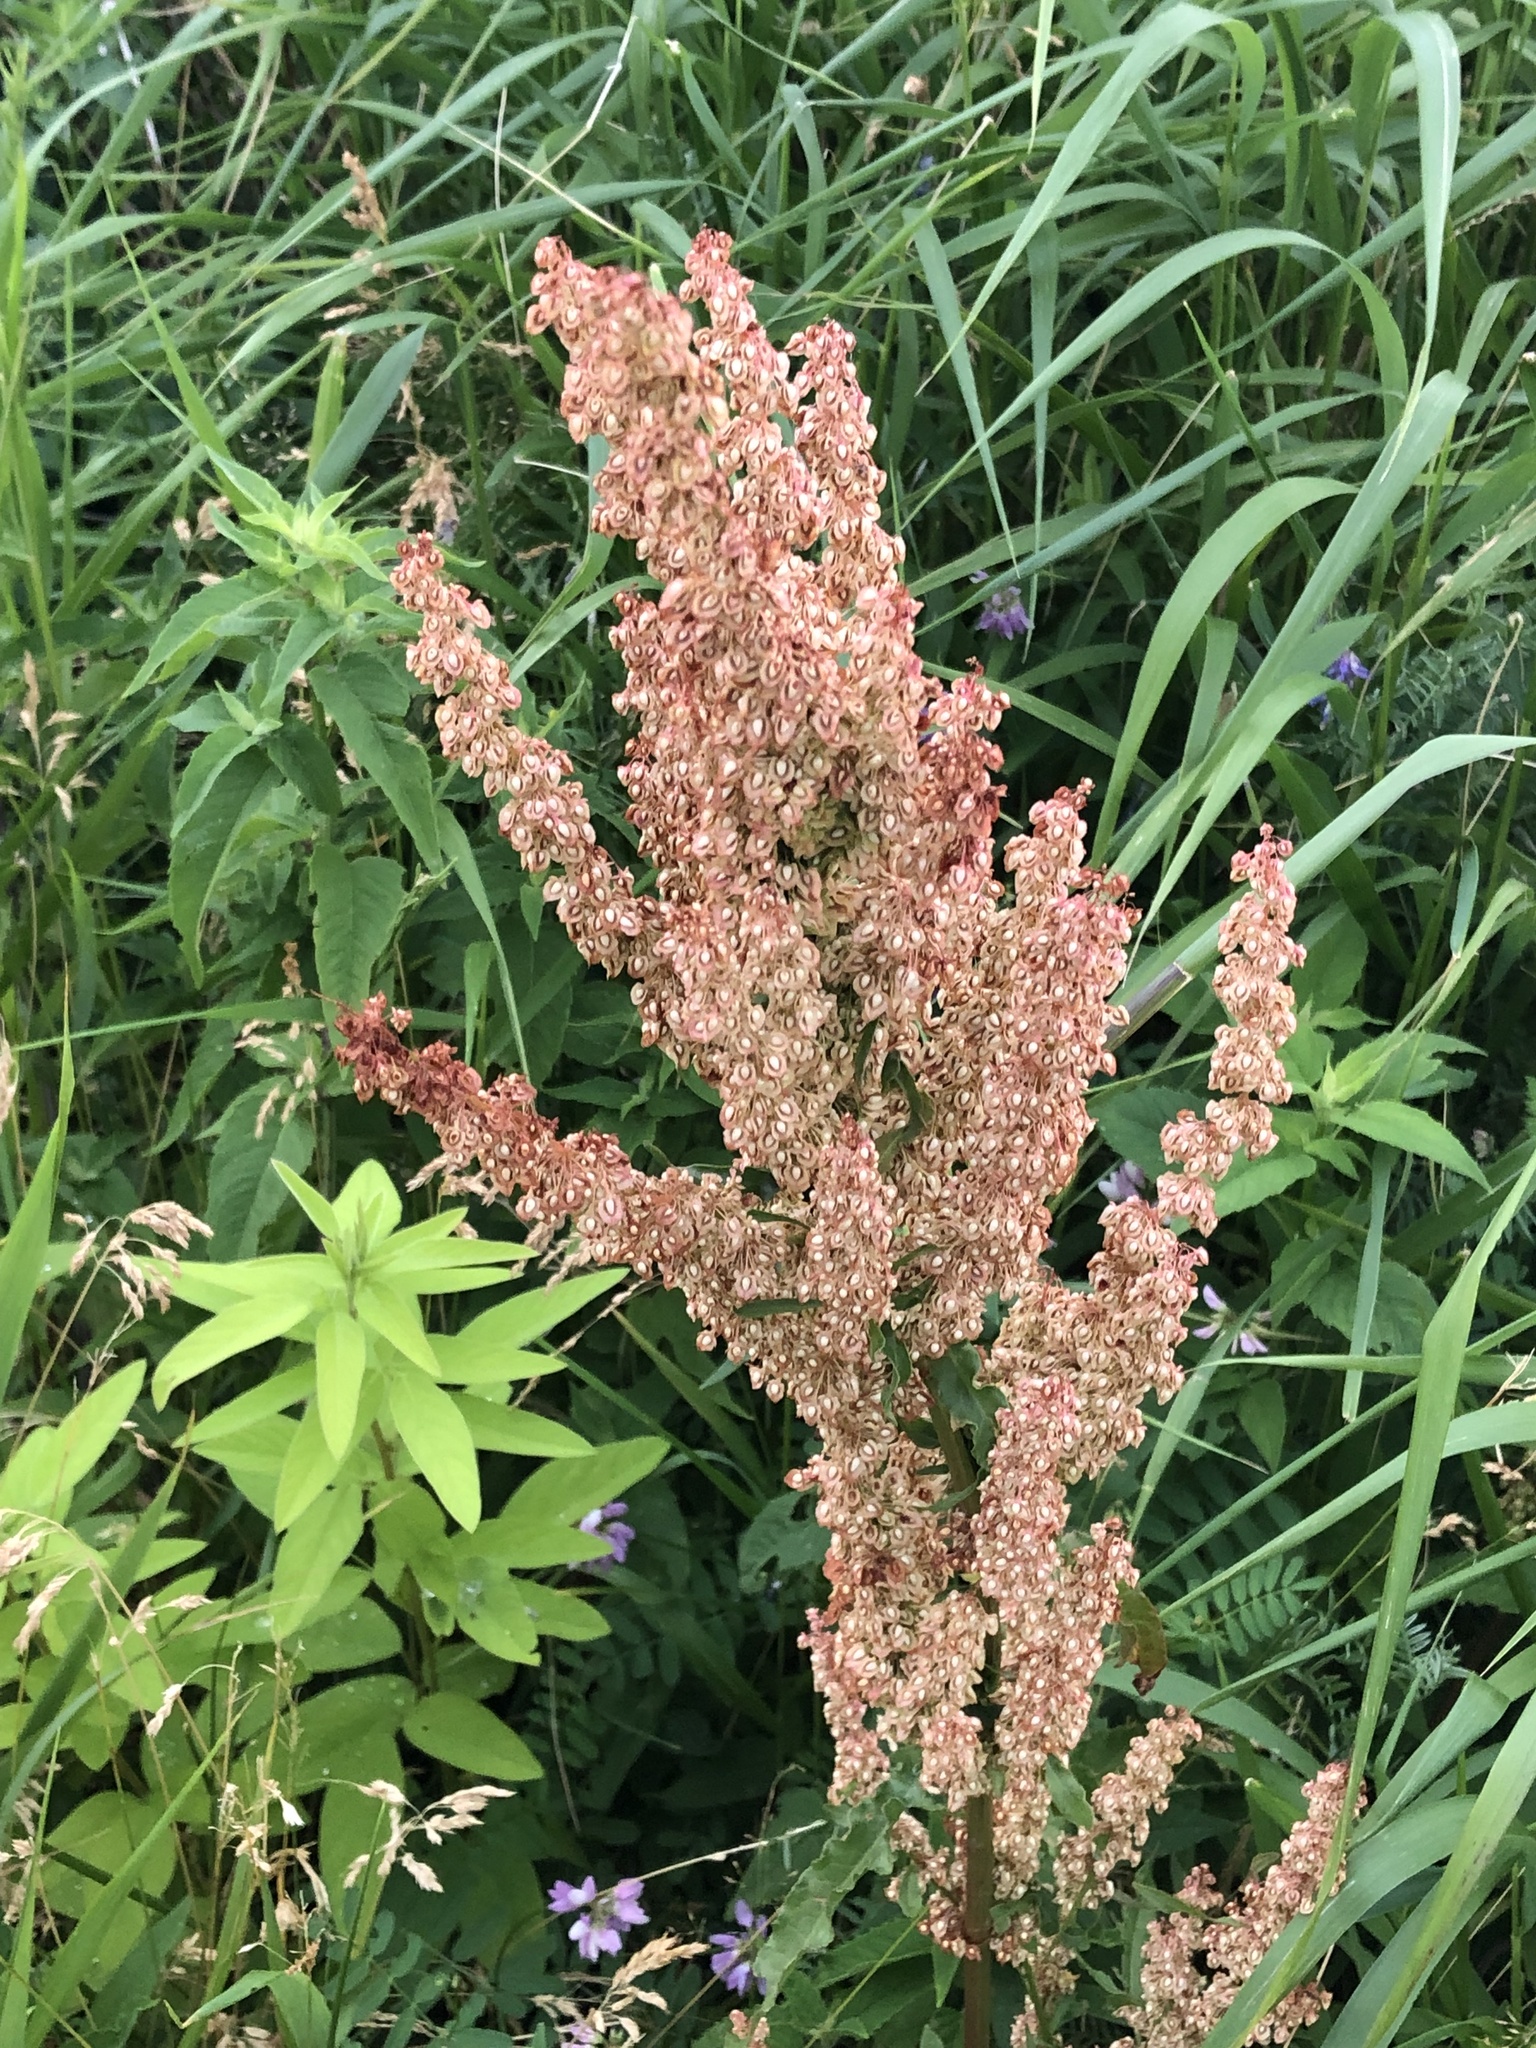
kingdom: Plantae
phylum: Tracheophyta
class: Magnoliopsida
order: Caryophyllales
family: Polygonaceae
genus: Rumex
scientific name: Rumex crispus
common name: Curled dock
